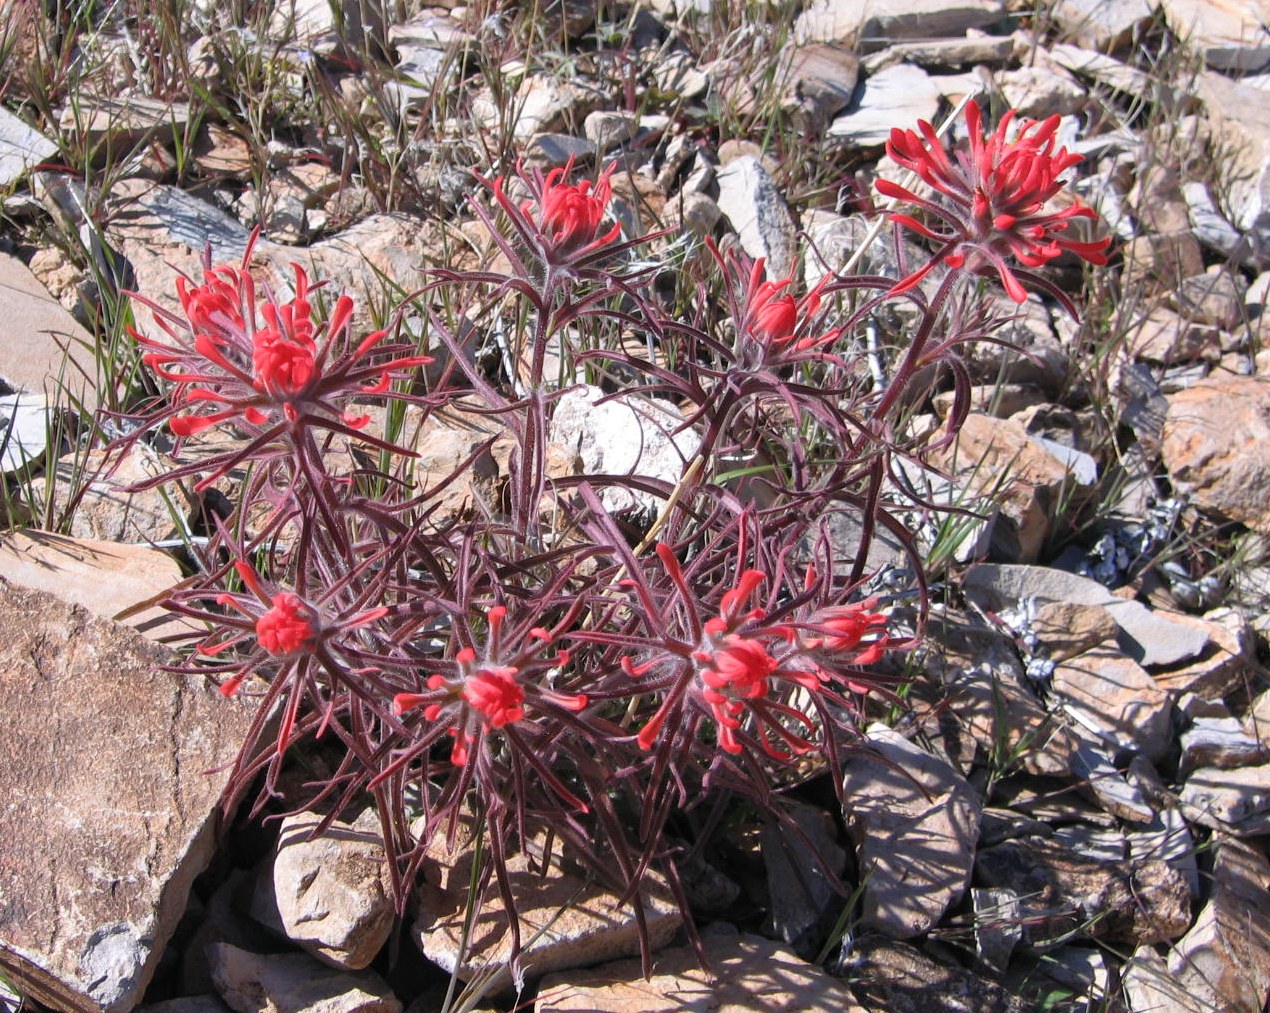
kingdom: Plantae
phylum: Tracheophyta
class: Magnoliopsida
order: Lamiales
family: Orobanchaceae
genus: Castilleja
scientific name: Castilleja chromosa
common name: Desert paintbrush
